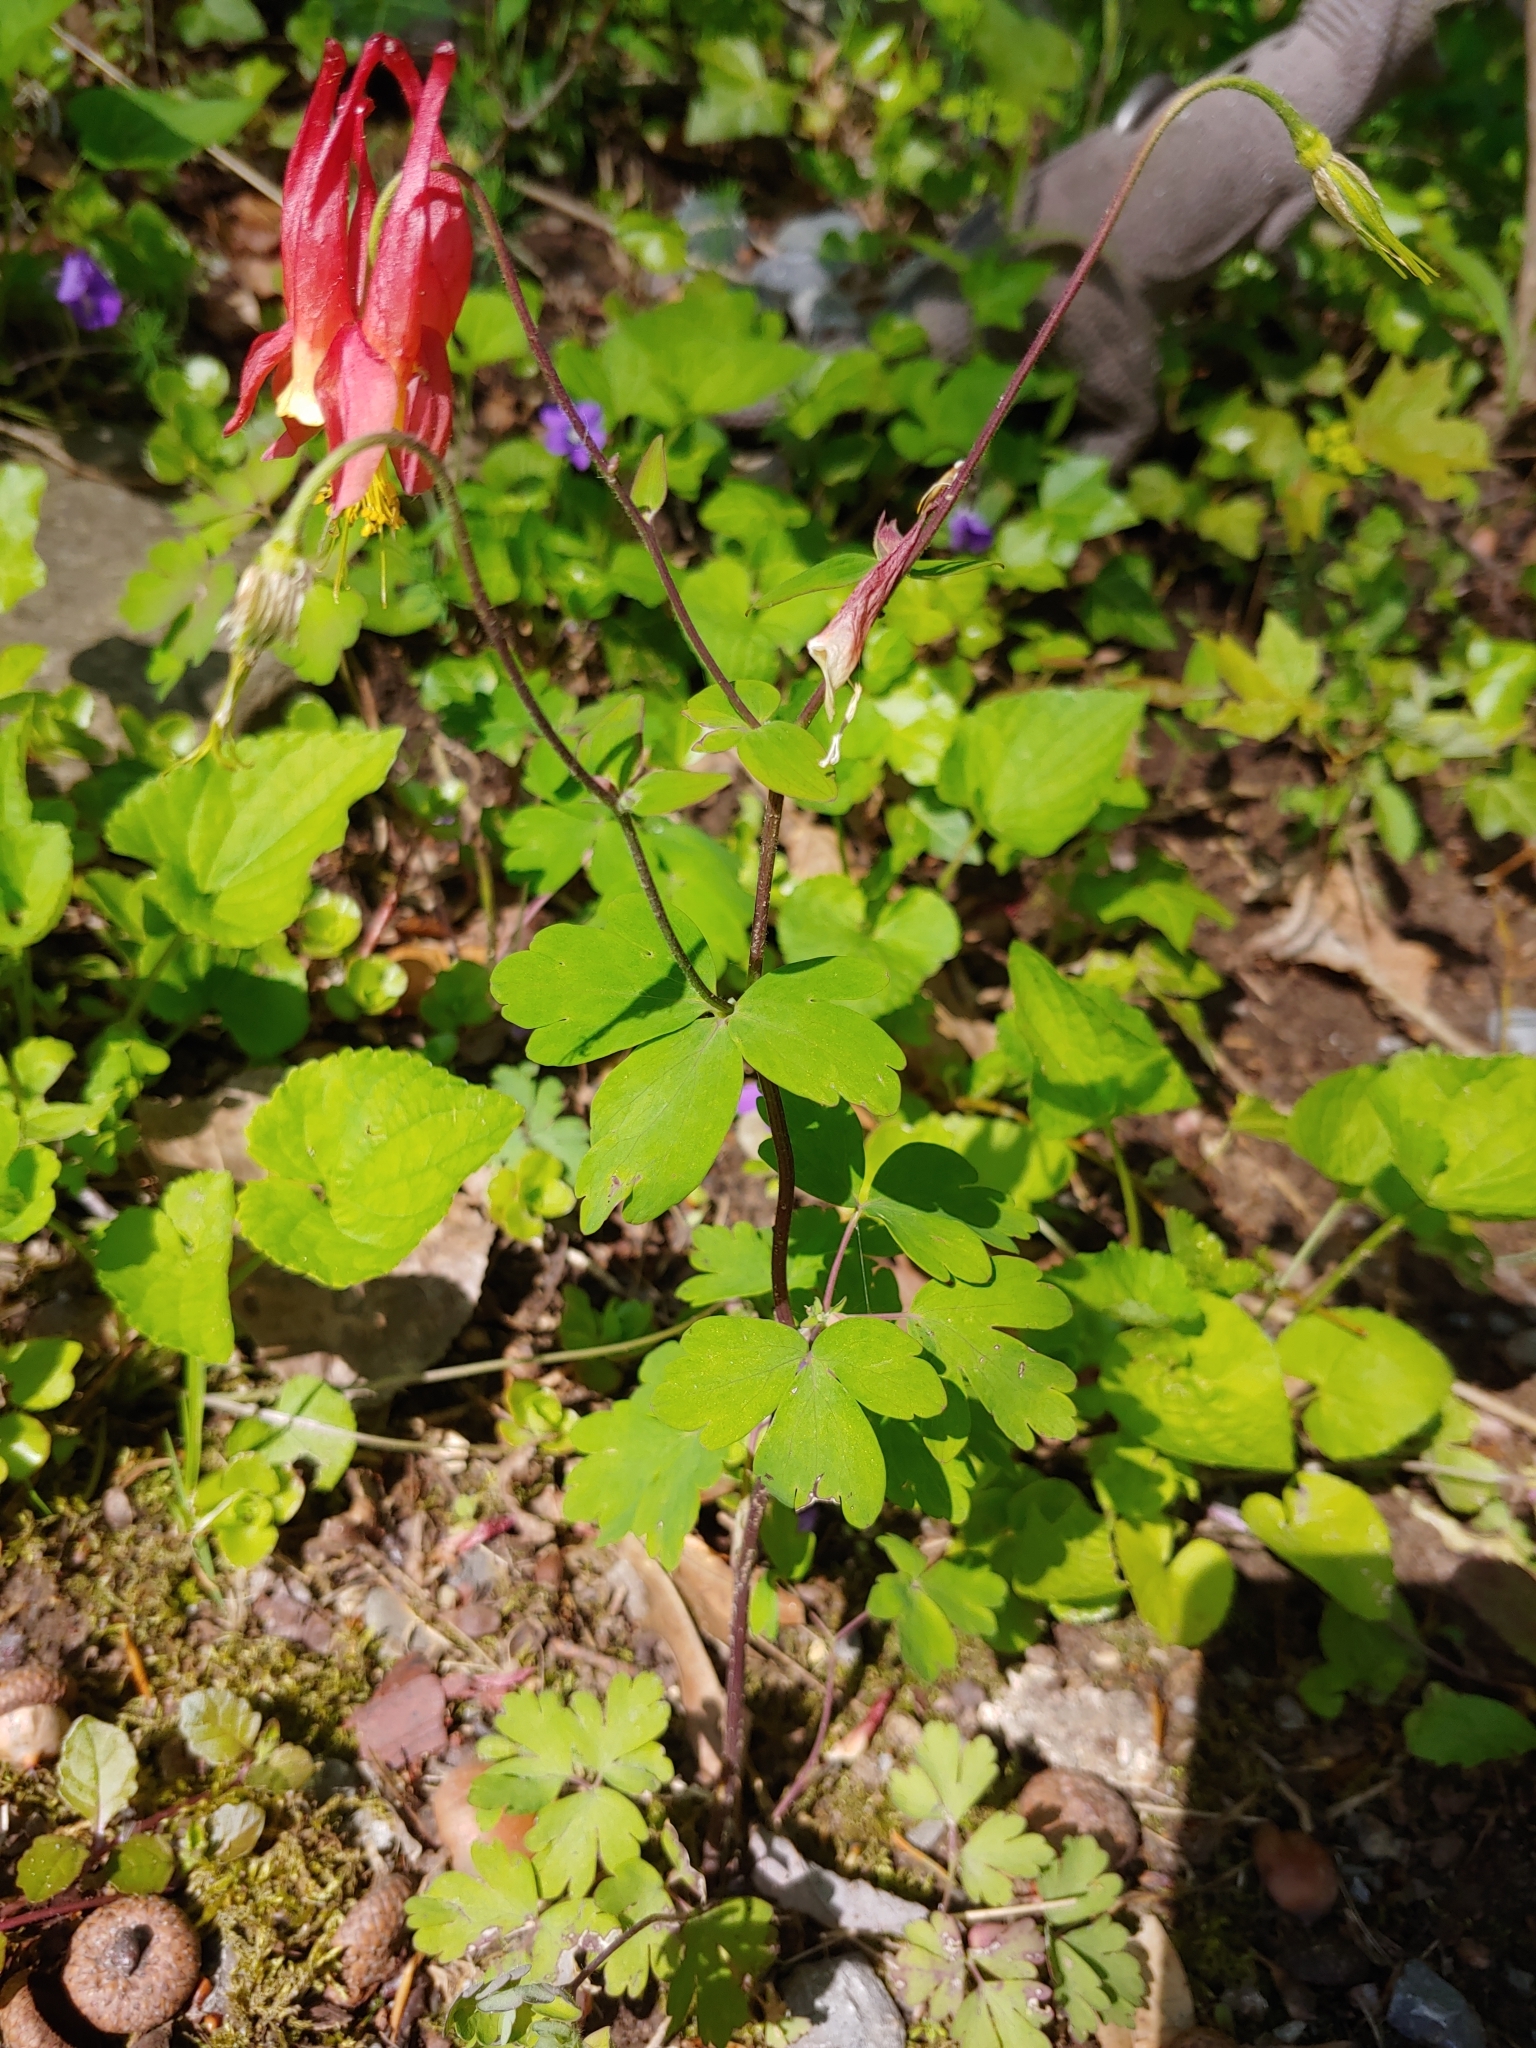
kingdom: Plantae
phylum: Tracheophyta
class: Magnoliopsida
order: Ranunculales
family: Ranunculaceae
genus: Aquilegia
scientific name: Aquilegia canadensis
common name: American columbine
